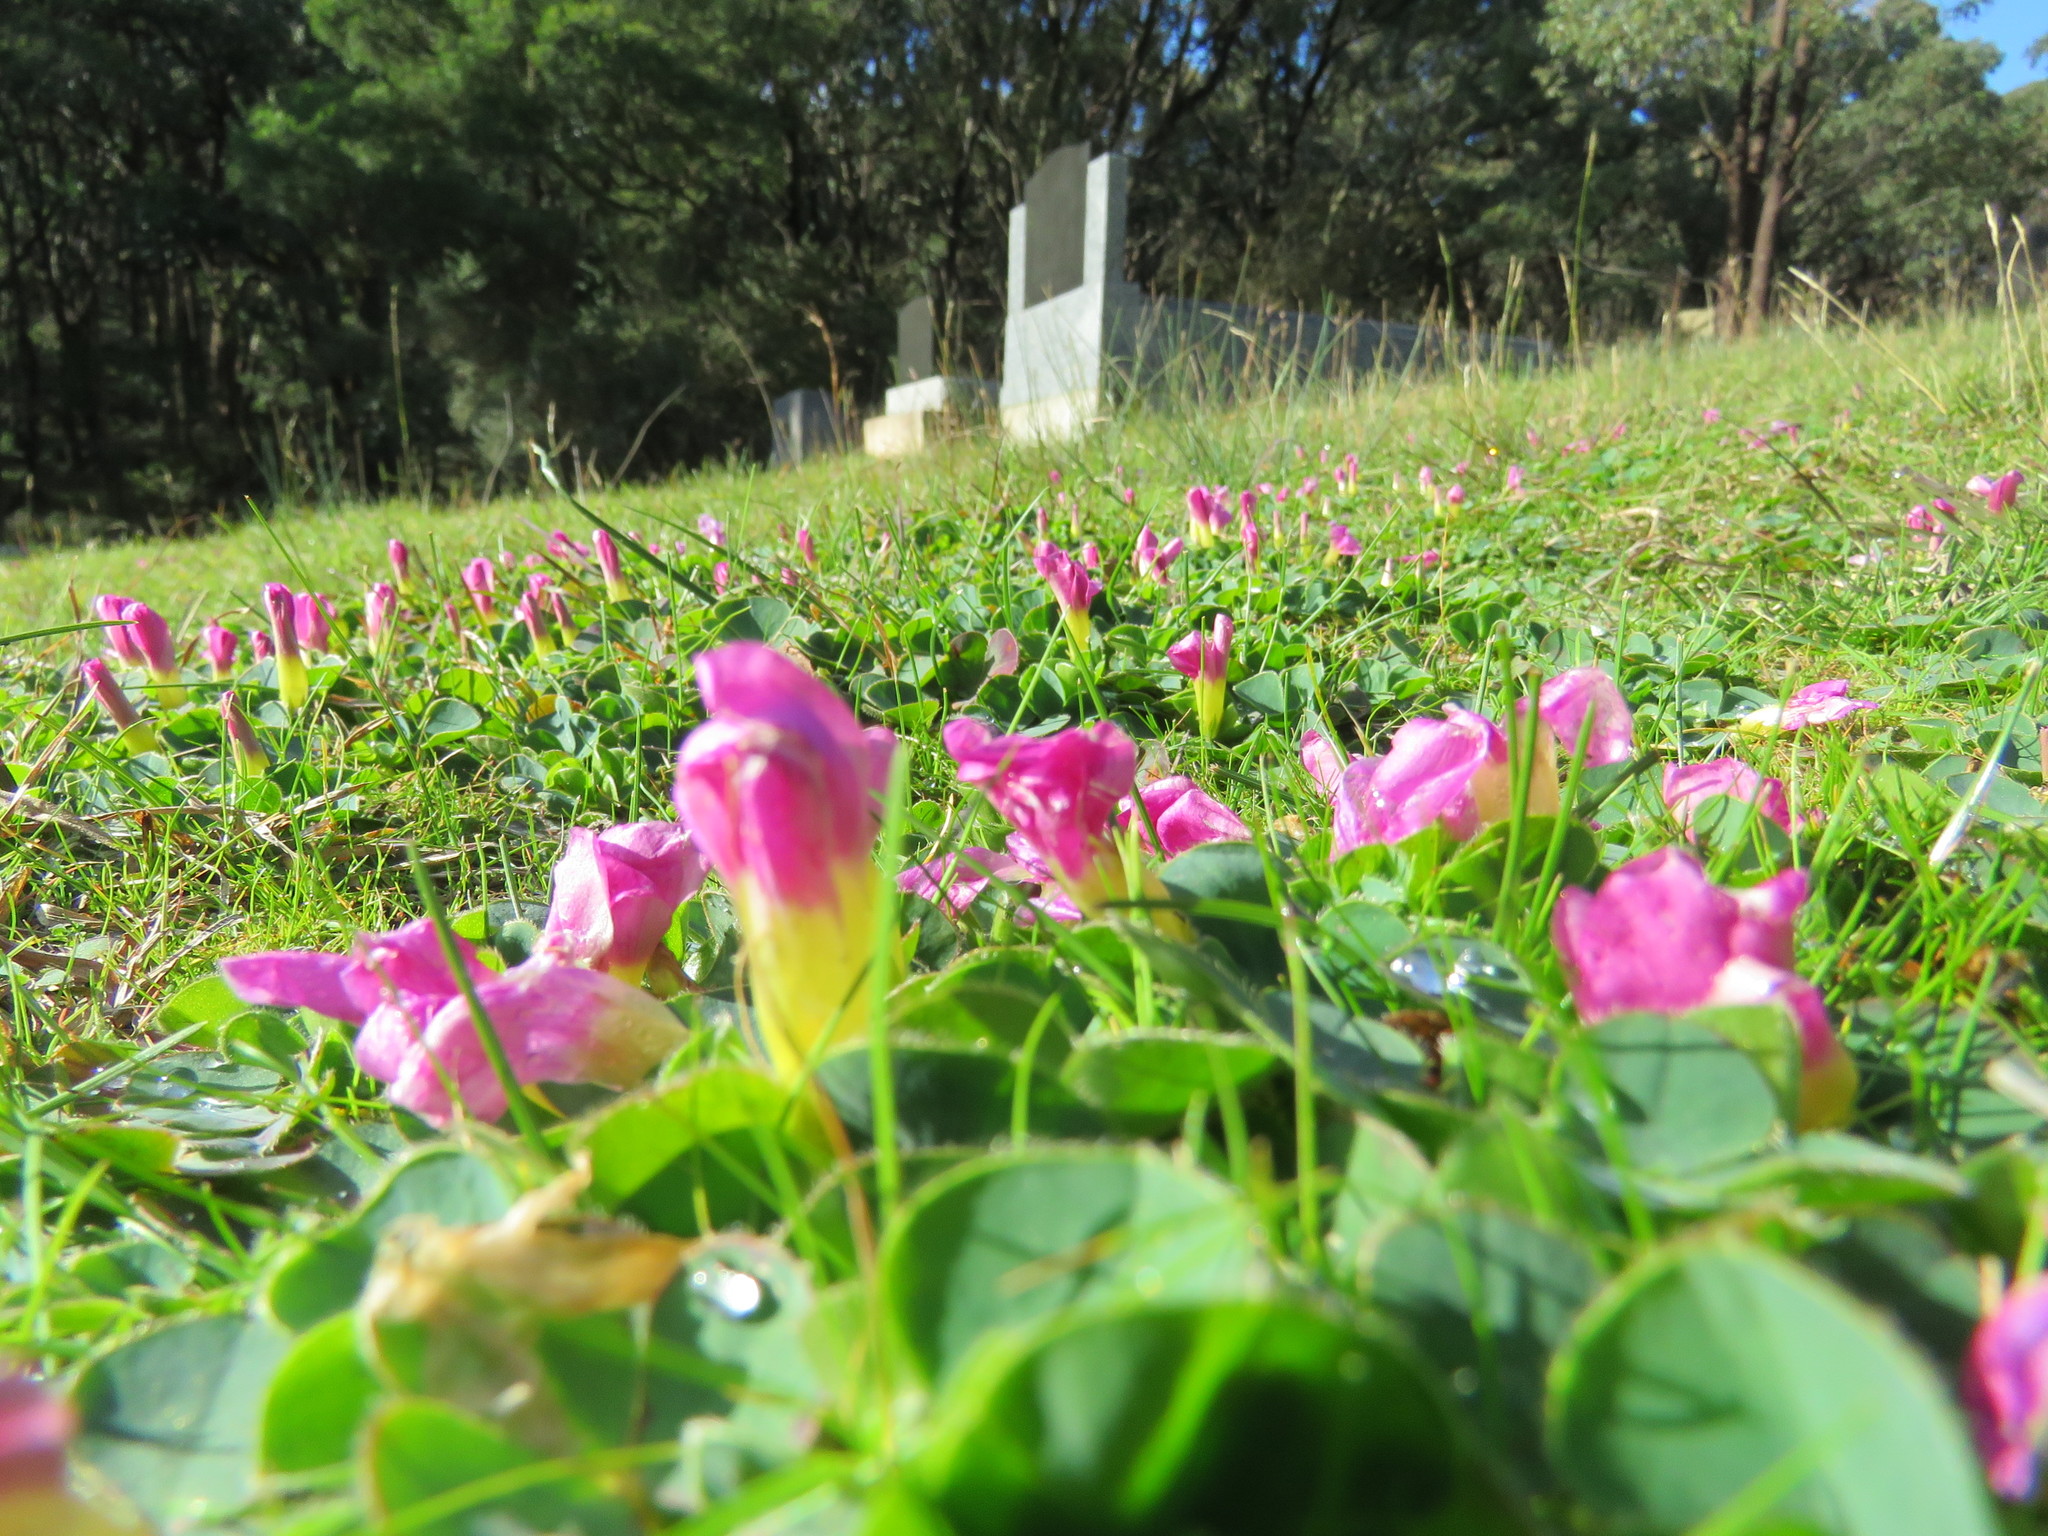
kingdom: Plantae
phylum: Tracheophyta
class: Magnoliopsida
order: Oxalidales
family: Oxalidaceae
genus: Oxalis
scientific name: Oxalis purpurea
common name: Purple woodsorrel
